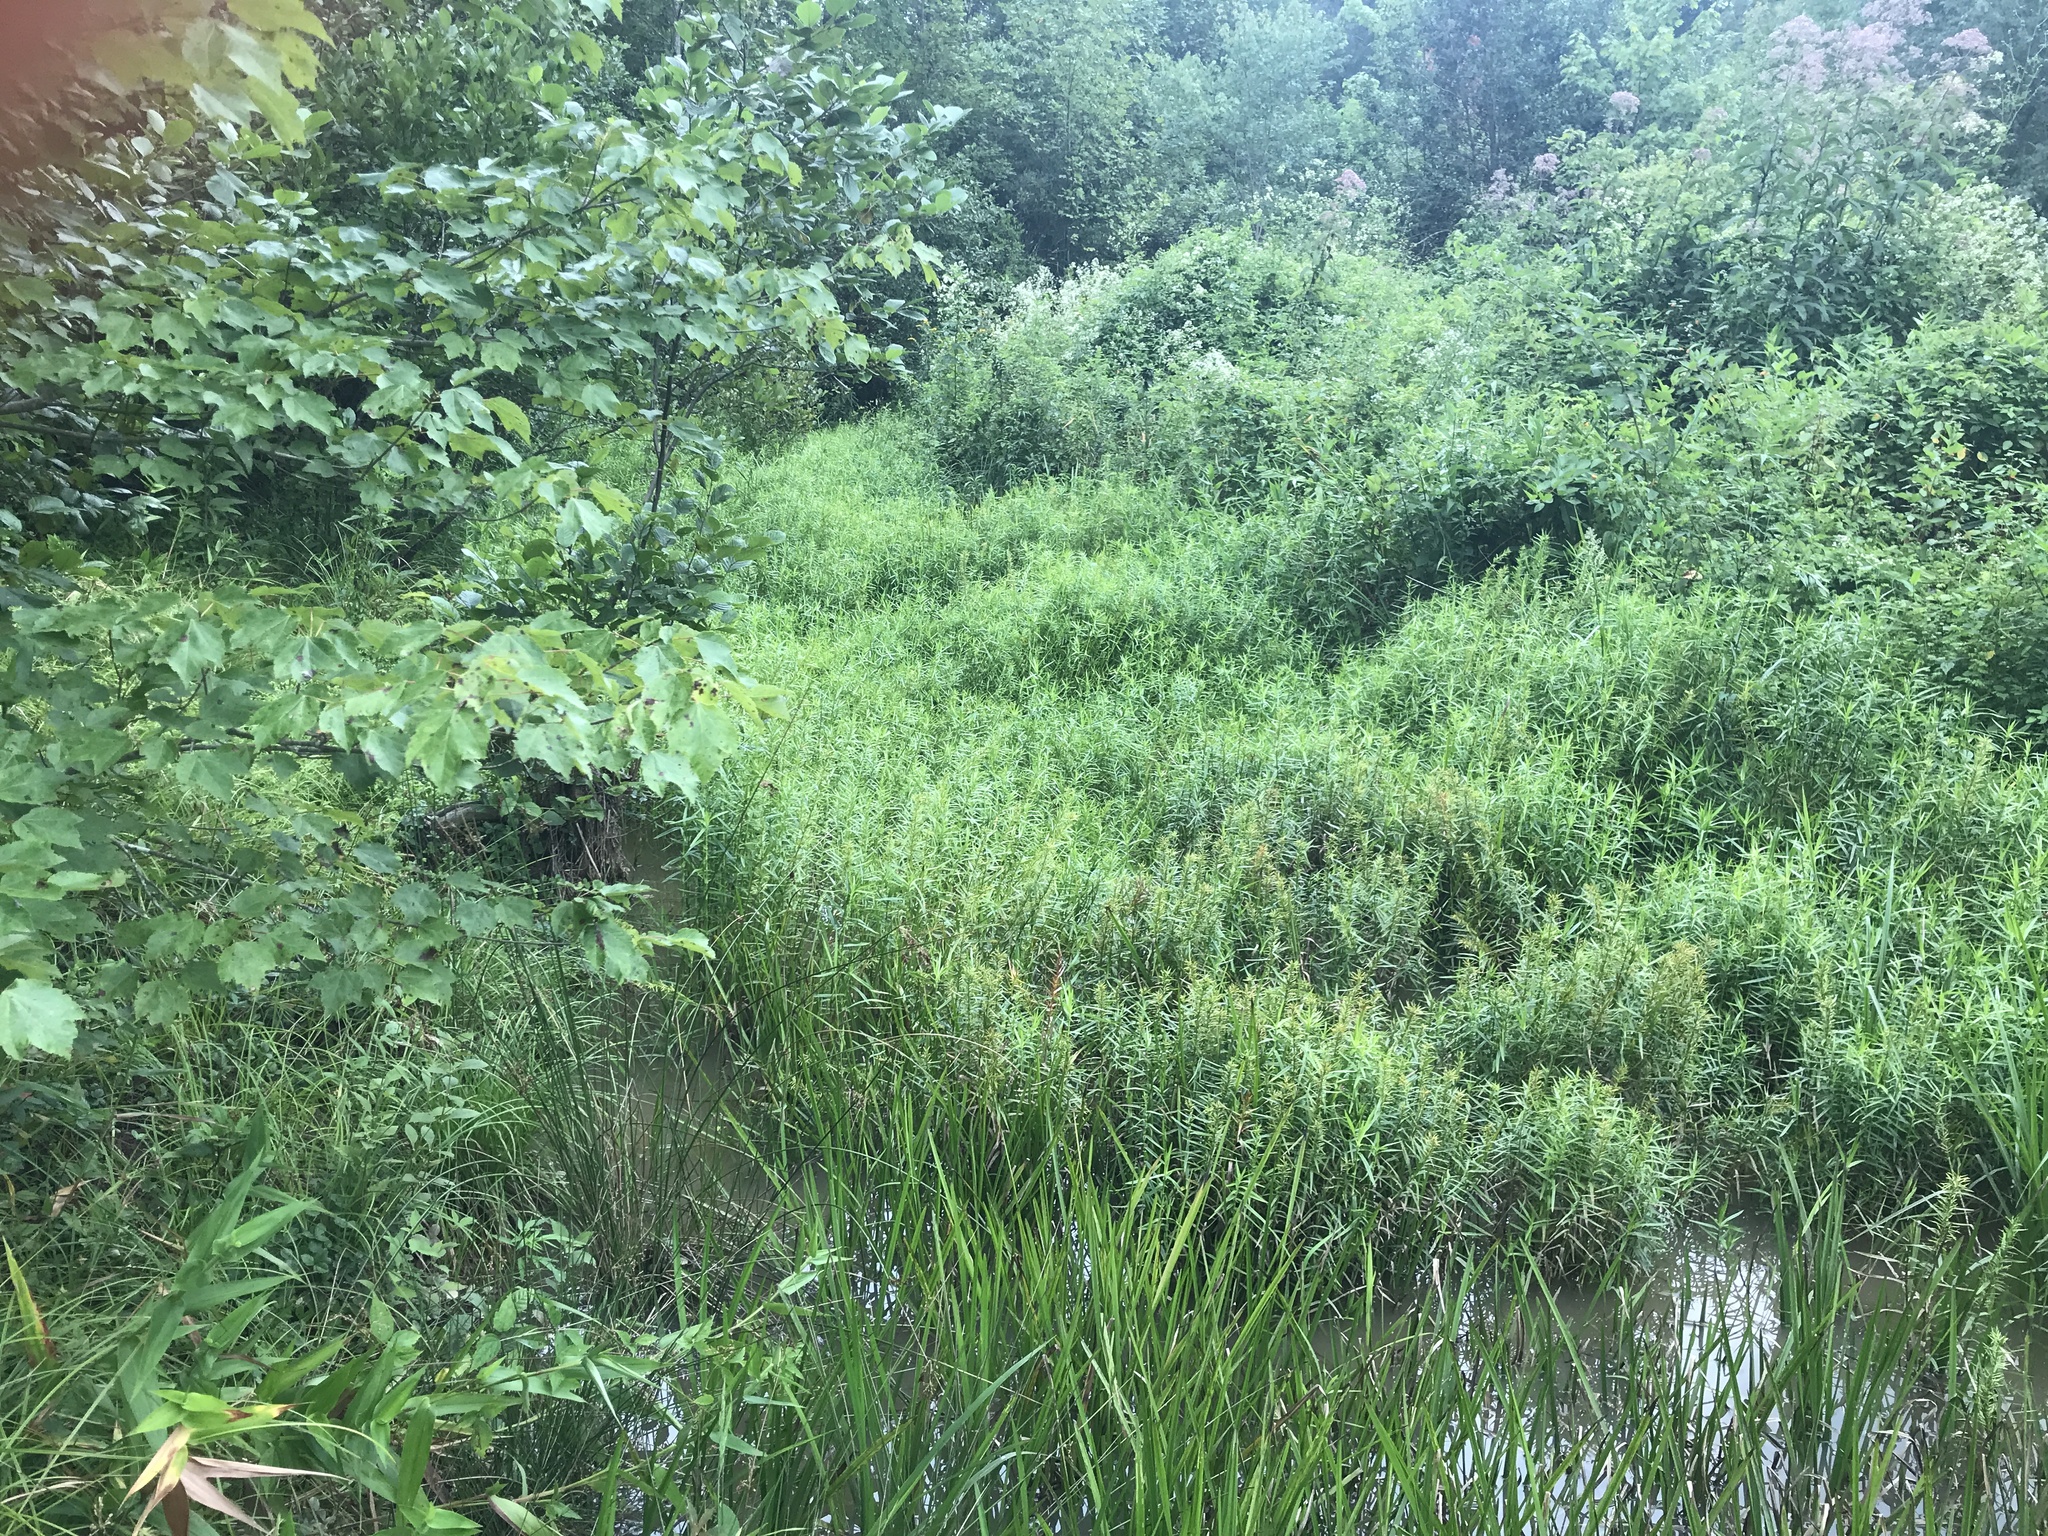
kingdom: Plantae
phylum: Tracheophyta
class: Liliopsida
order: Poales
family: Cyperaceae
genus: Dulichium
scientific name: Dulichium arundinaceum
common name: Three-way sedge
